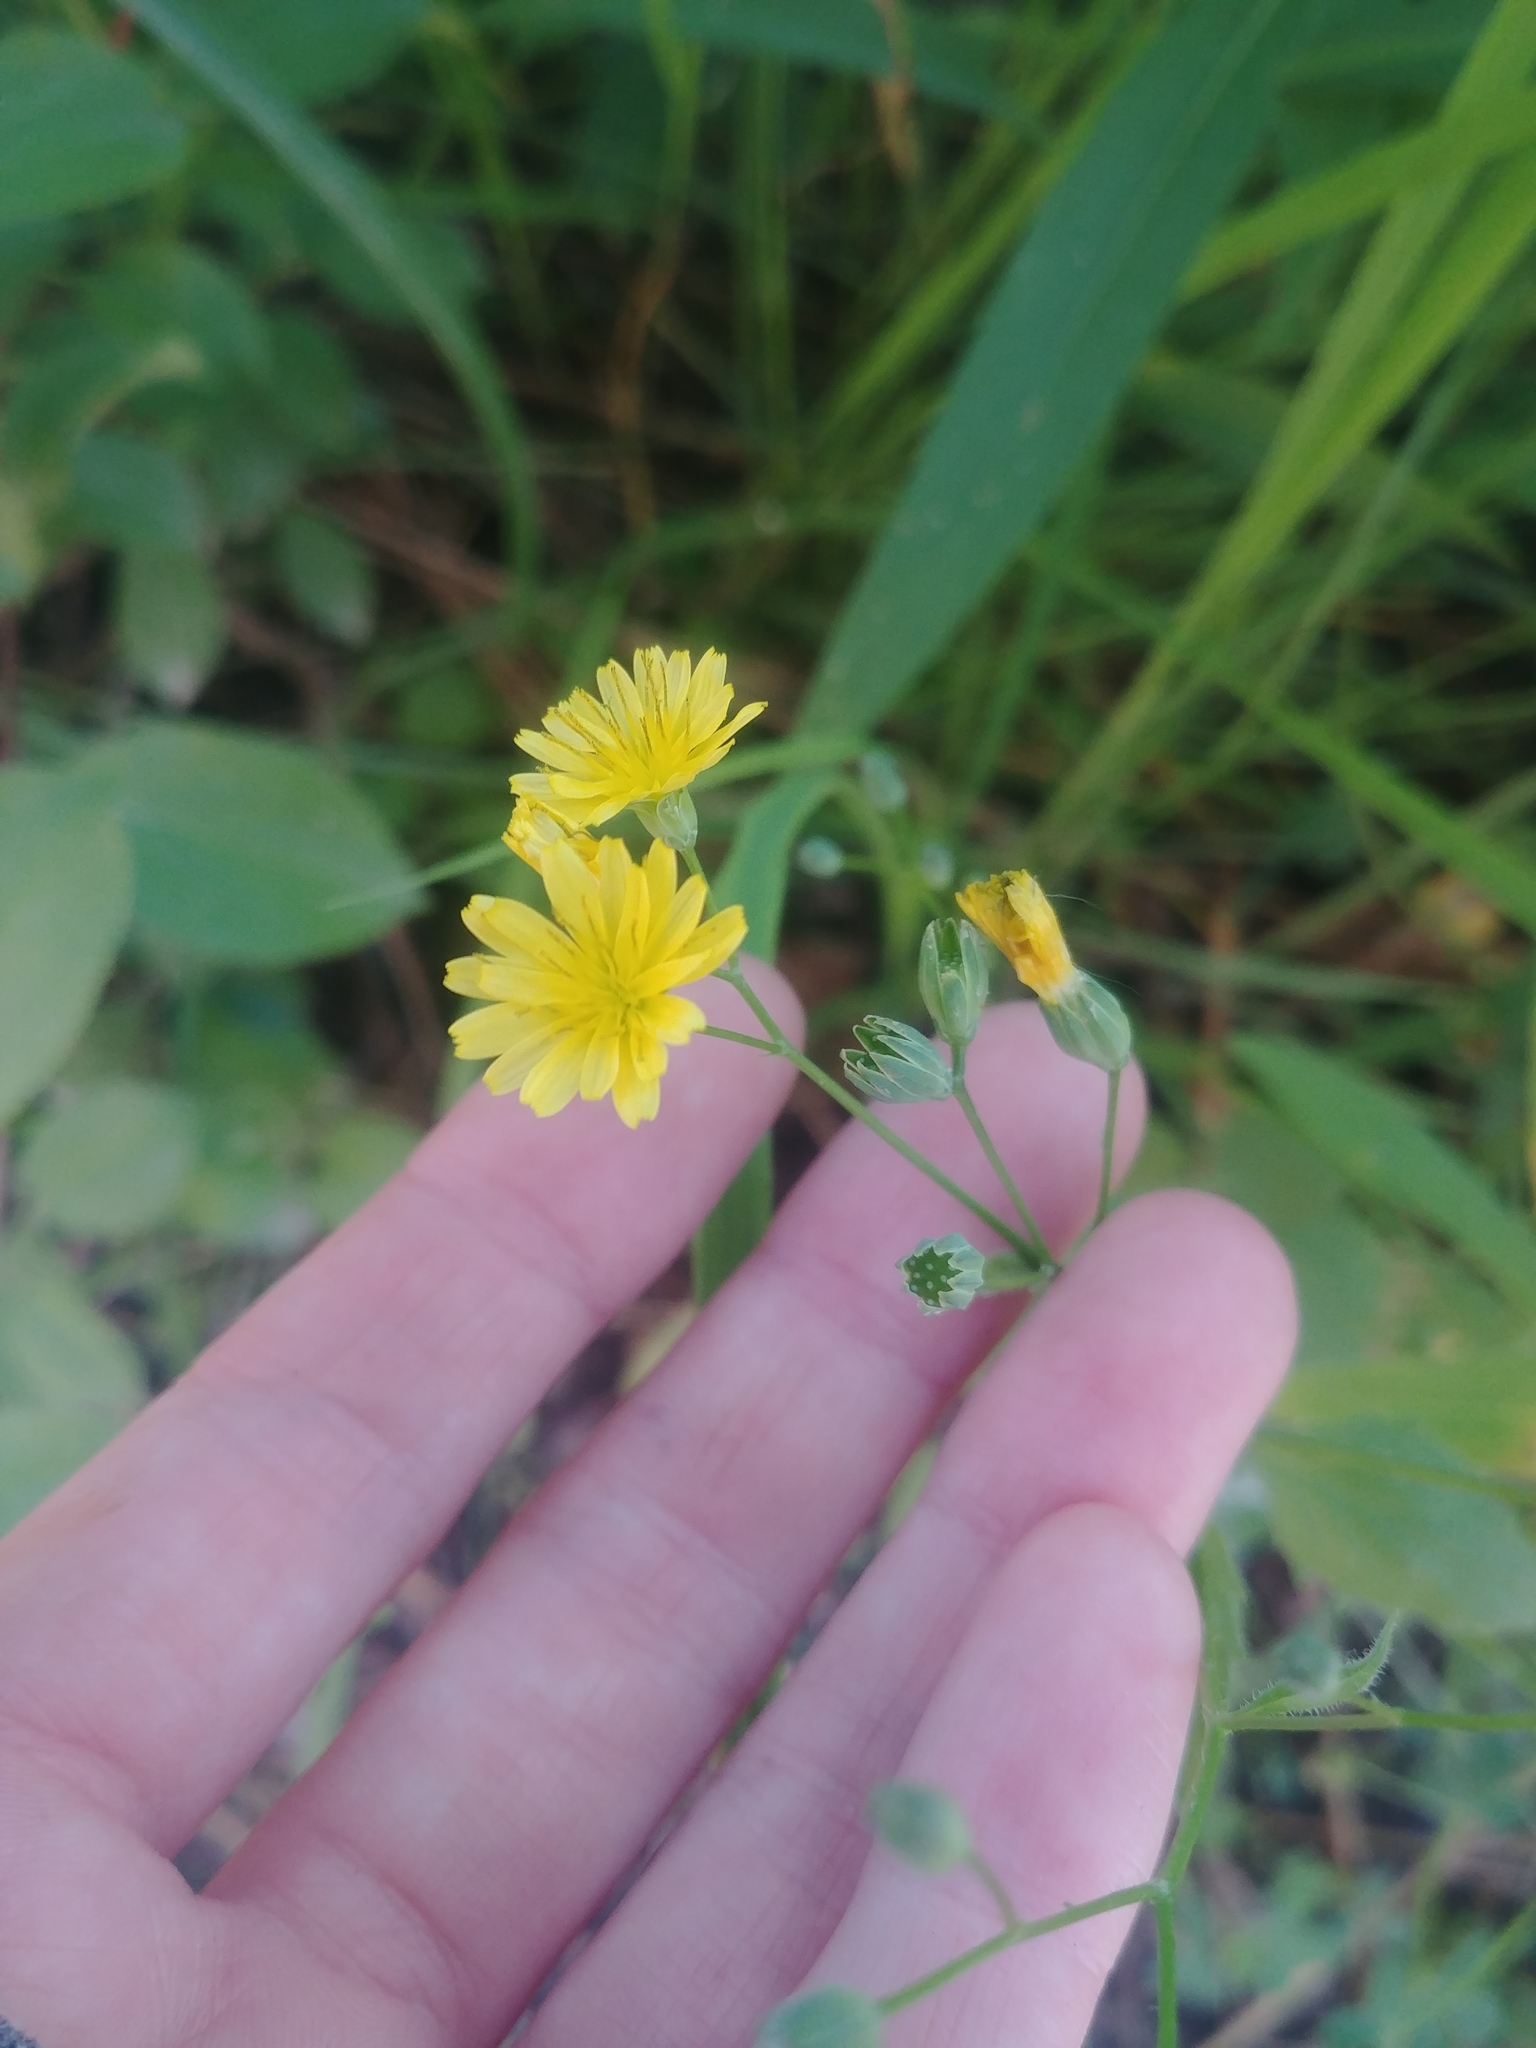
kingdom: Plantae
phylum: Tracheophyta
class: Magnoliopsida
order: Asterales
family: Asteraceae
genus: Lapsana
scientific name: Lapsana communis
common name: Nipplewort
